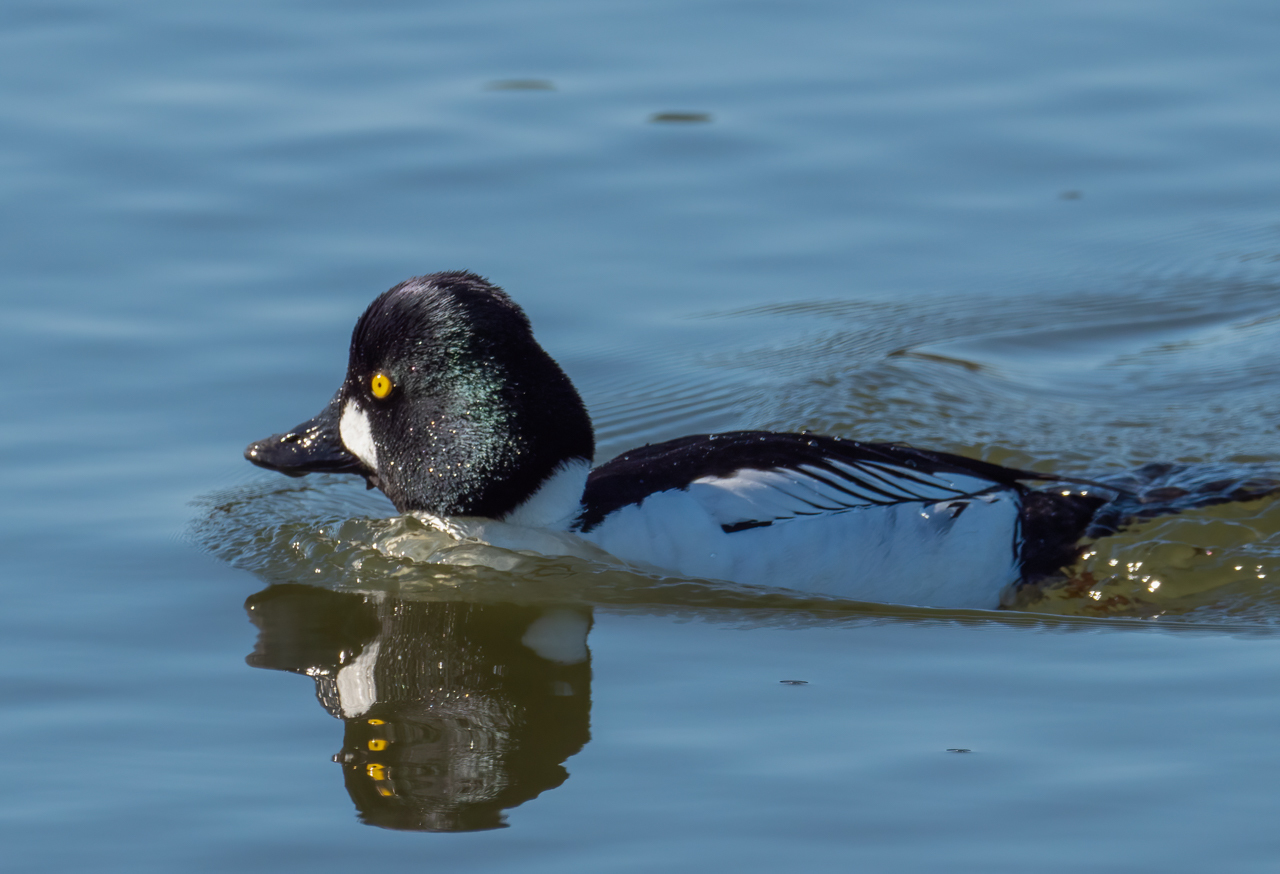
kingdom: Animalia
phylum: Chordata
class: Aves
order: Anseriformes
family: Anatidae
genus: Bucephala
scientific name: Bucephala clangula
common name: Common goldeneye
